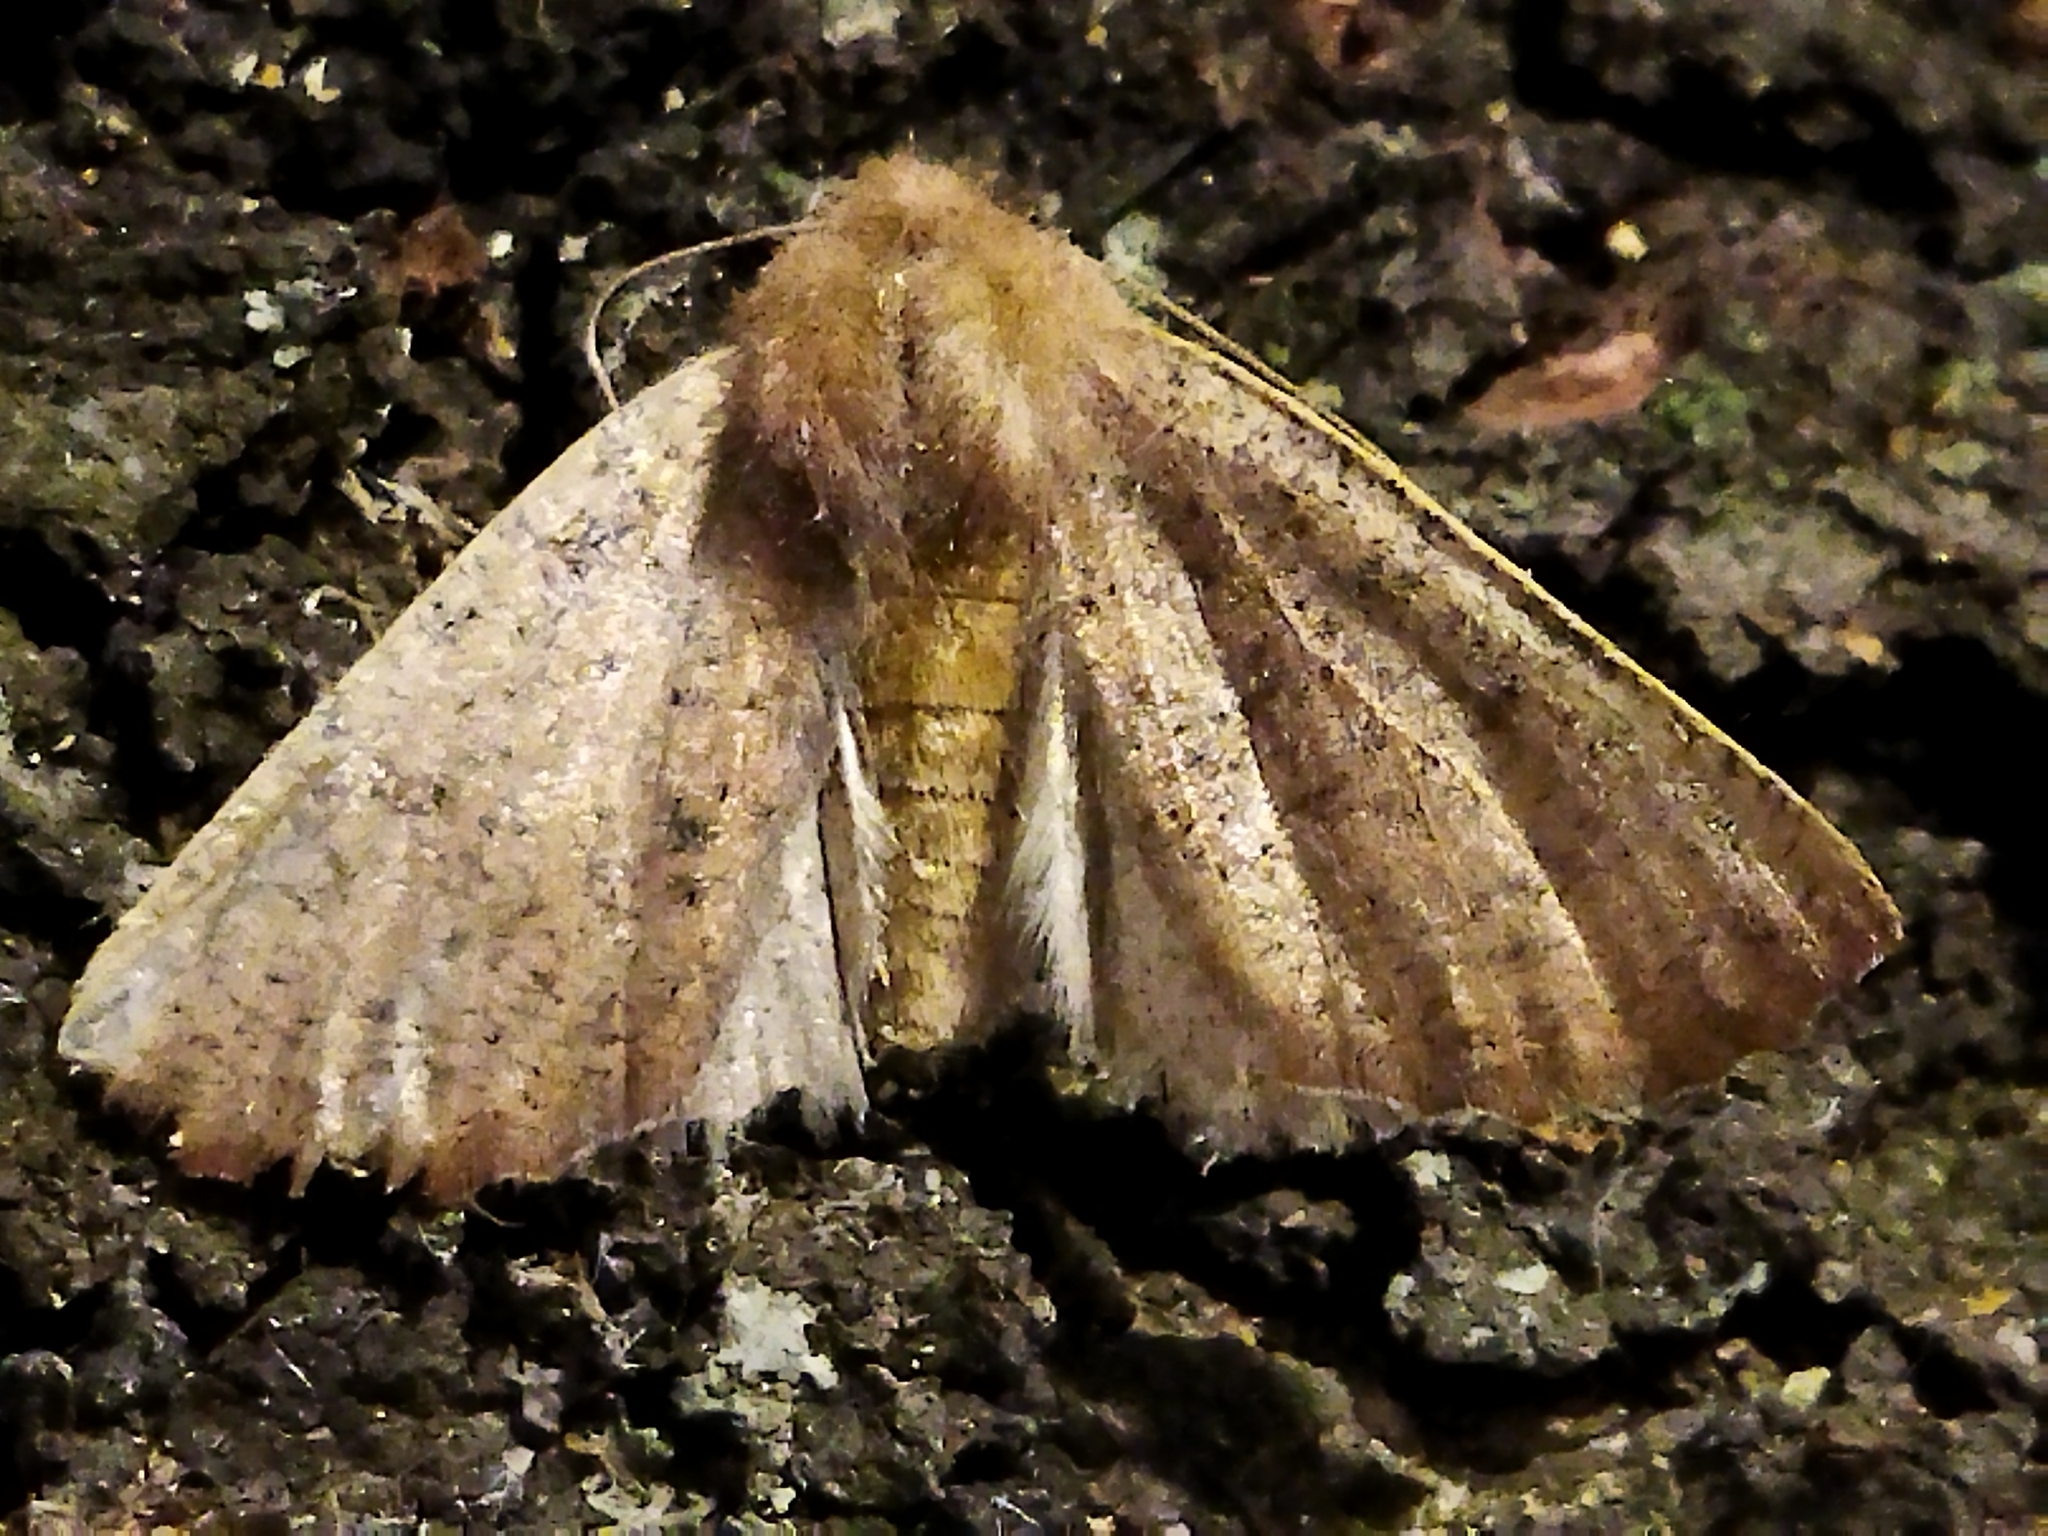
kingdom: Animalia
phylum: Arthropoda
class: Insecta
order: Lepidoptera
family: Geometridae
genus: Dasycorsa
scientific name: Dasycorsa modesta
